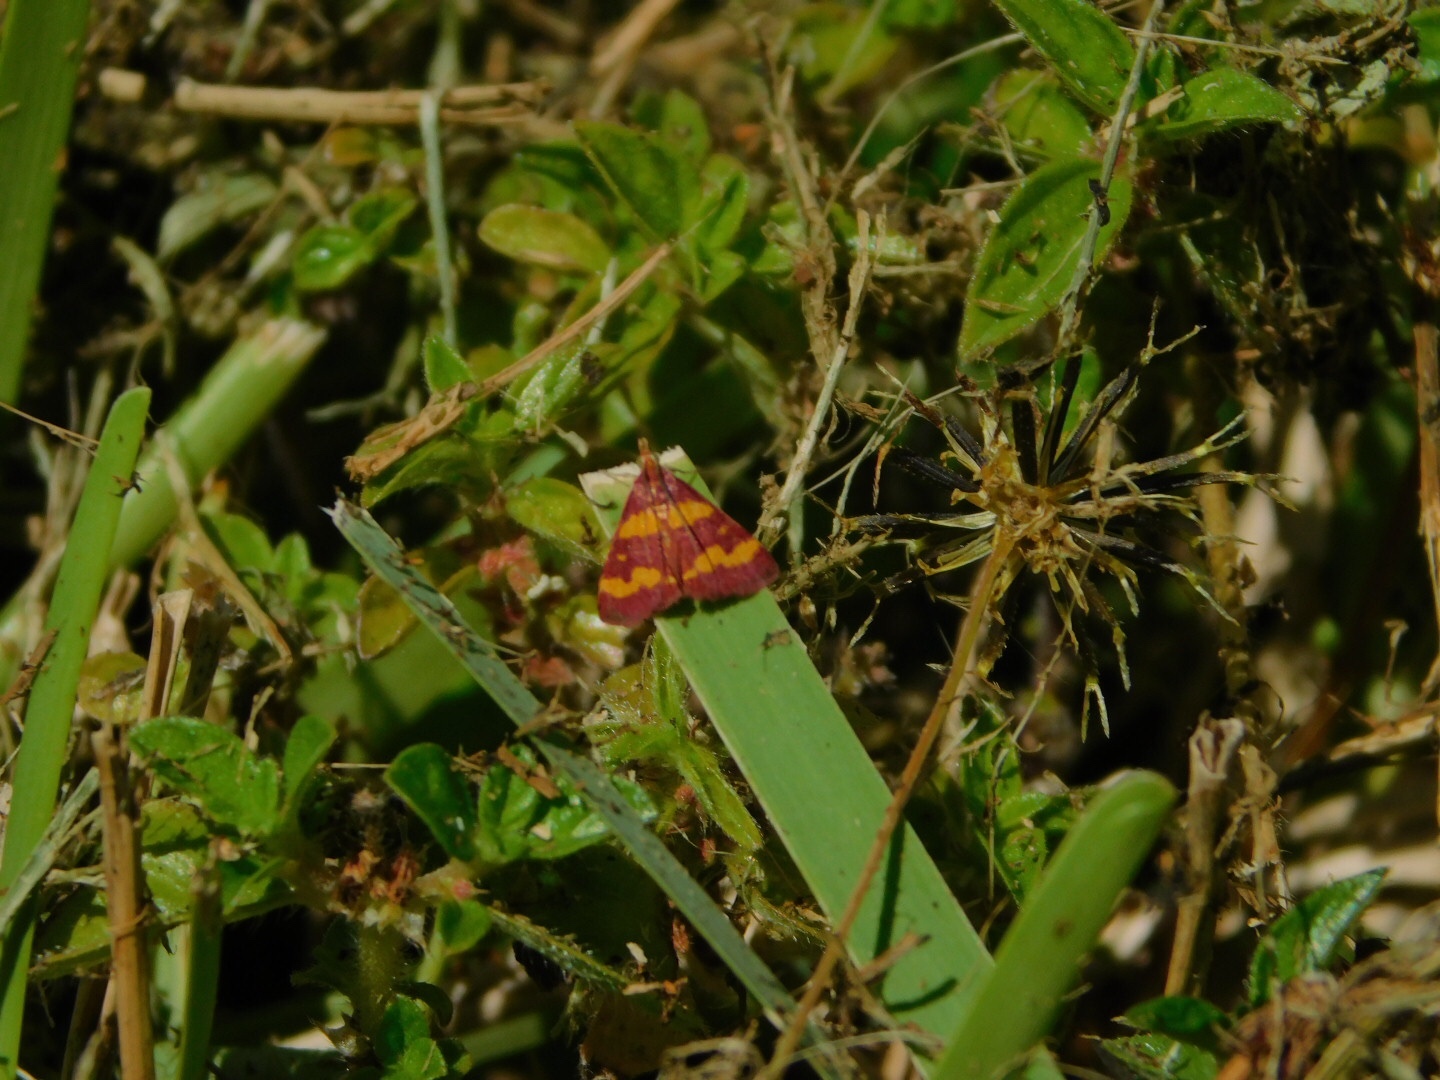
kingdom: Animalia
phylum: Arthropoda
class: Insecta
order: Lepidoptera
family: Crambidae
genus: Pyrausta
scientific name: Pyrausta tyralis
